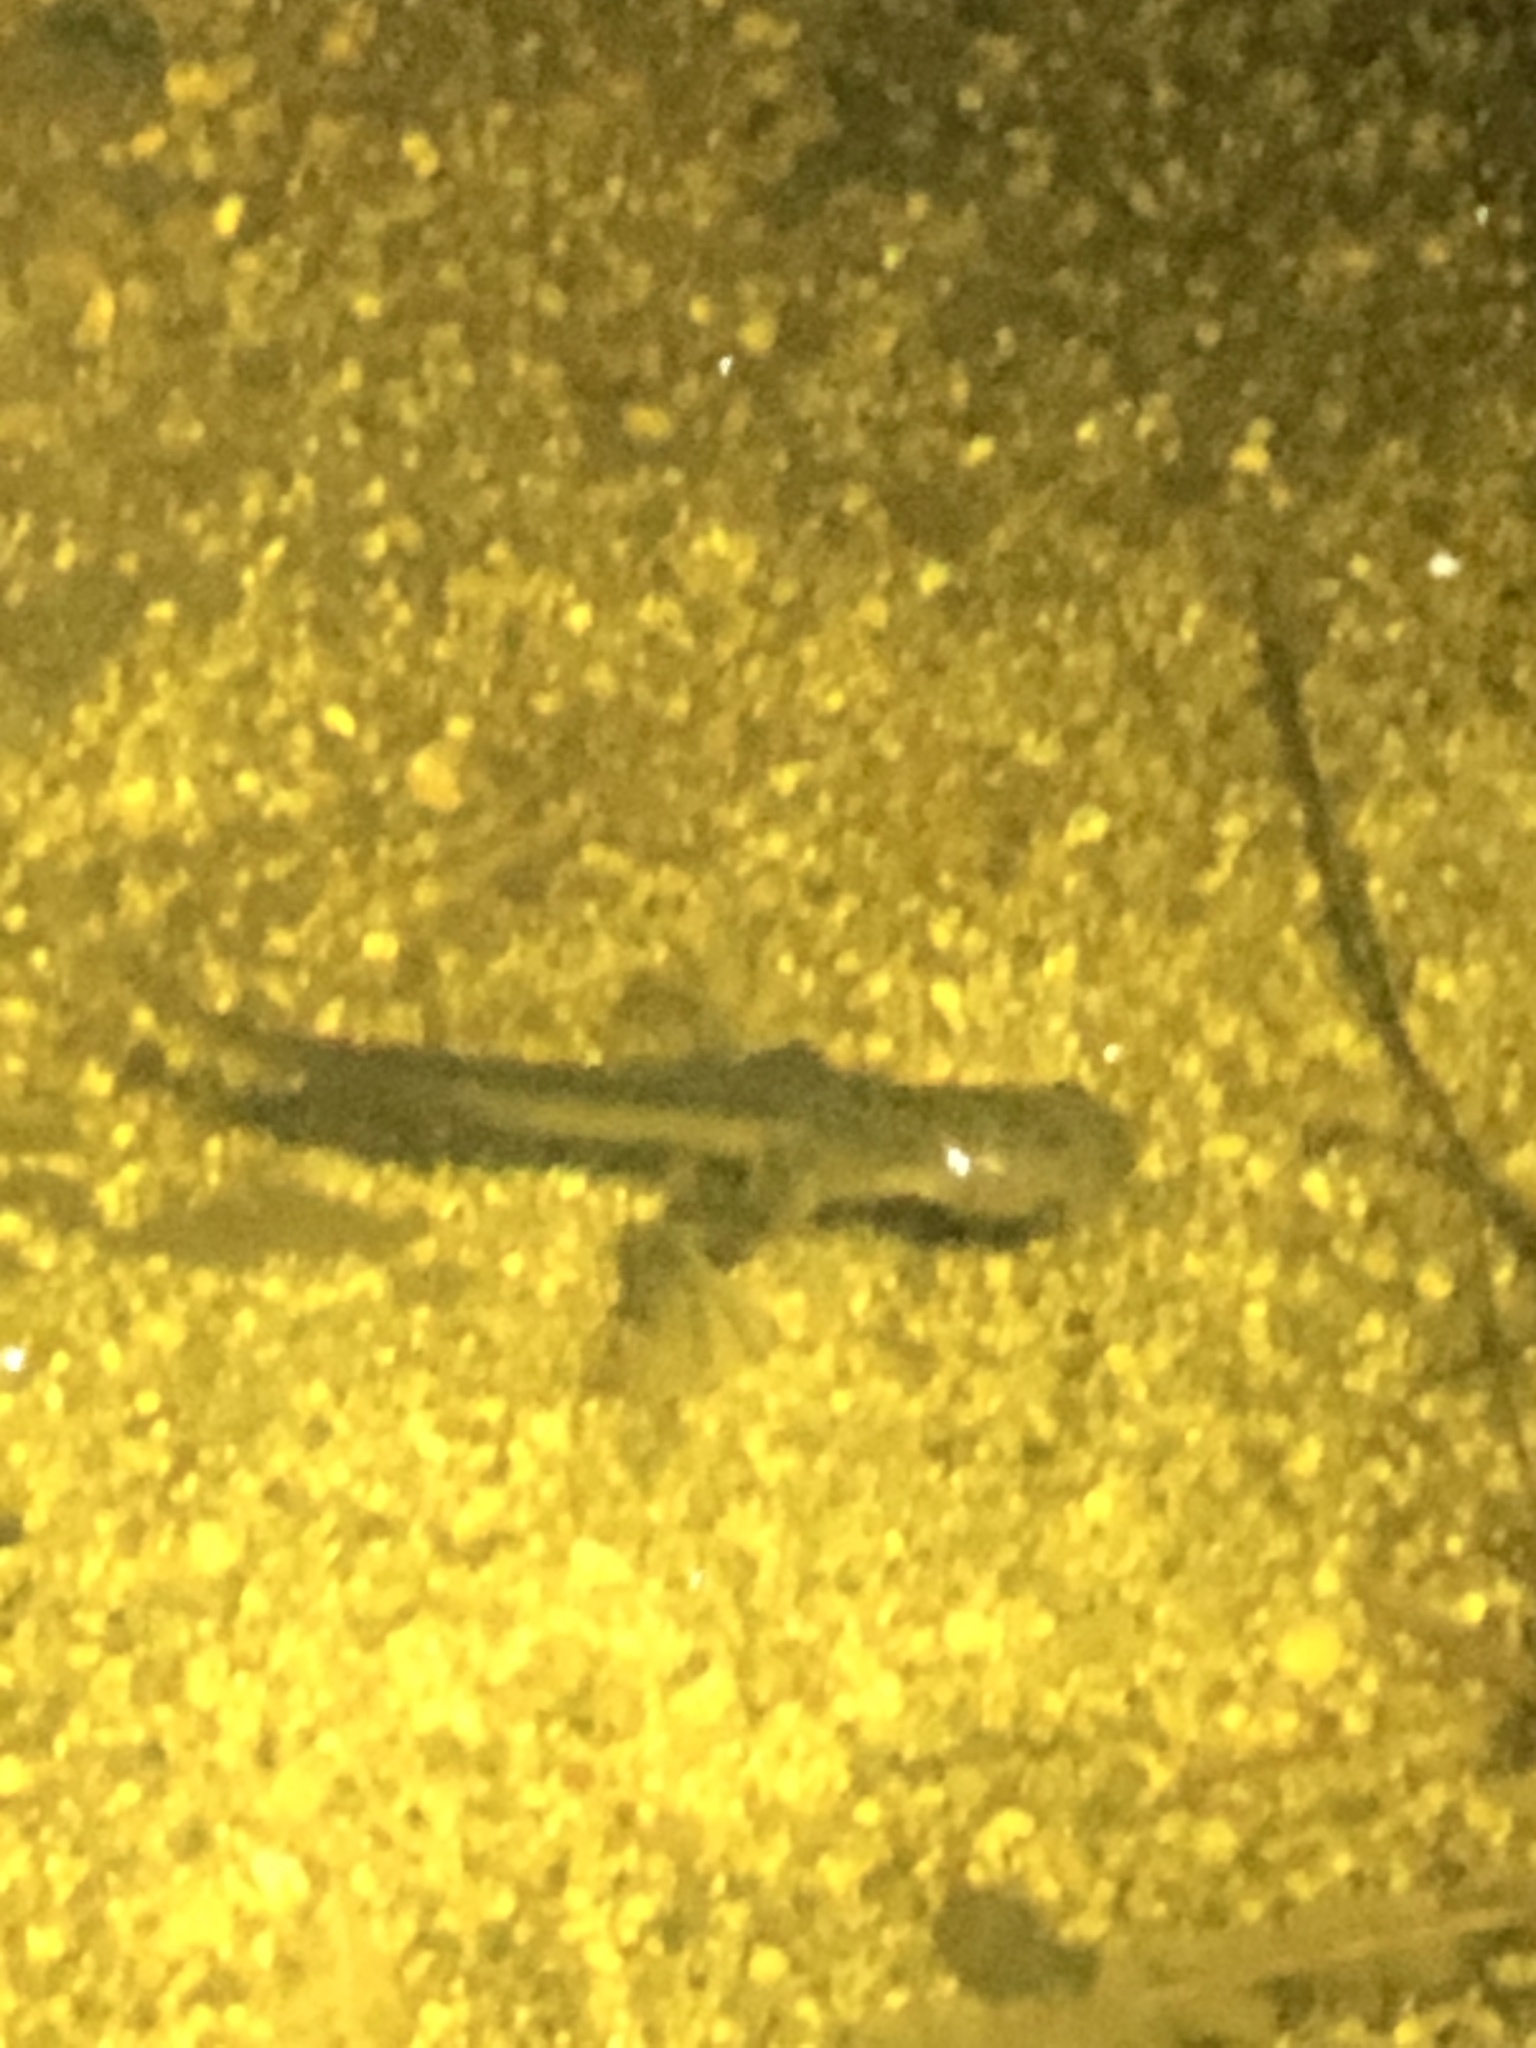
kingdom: Animalia
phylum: Chordata
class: Amphibia
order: Anura
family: Pipidae
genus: Xenopus
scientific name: Xenopus laevis
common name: African clawed frog
